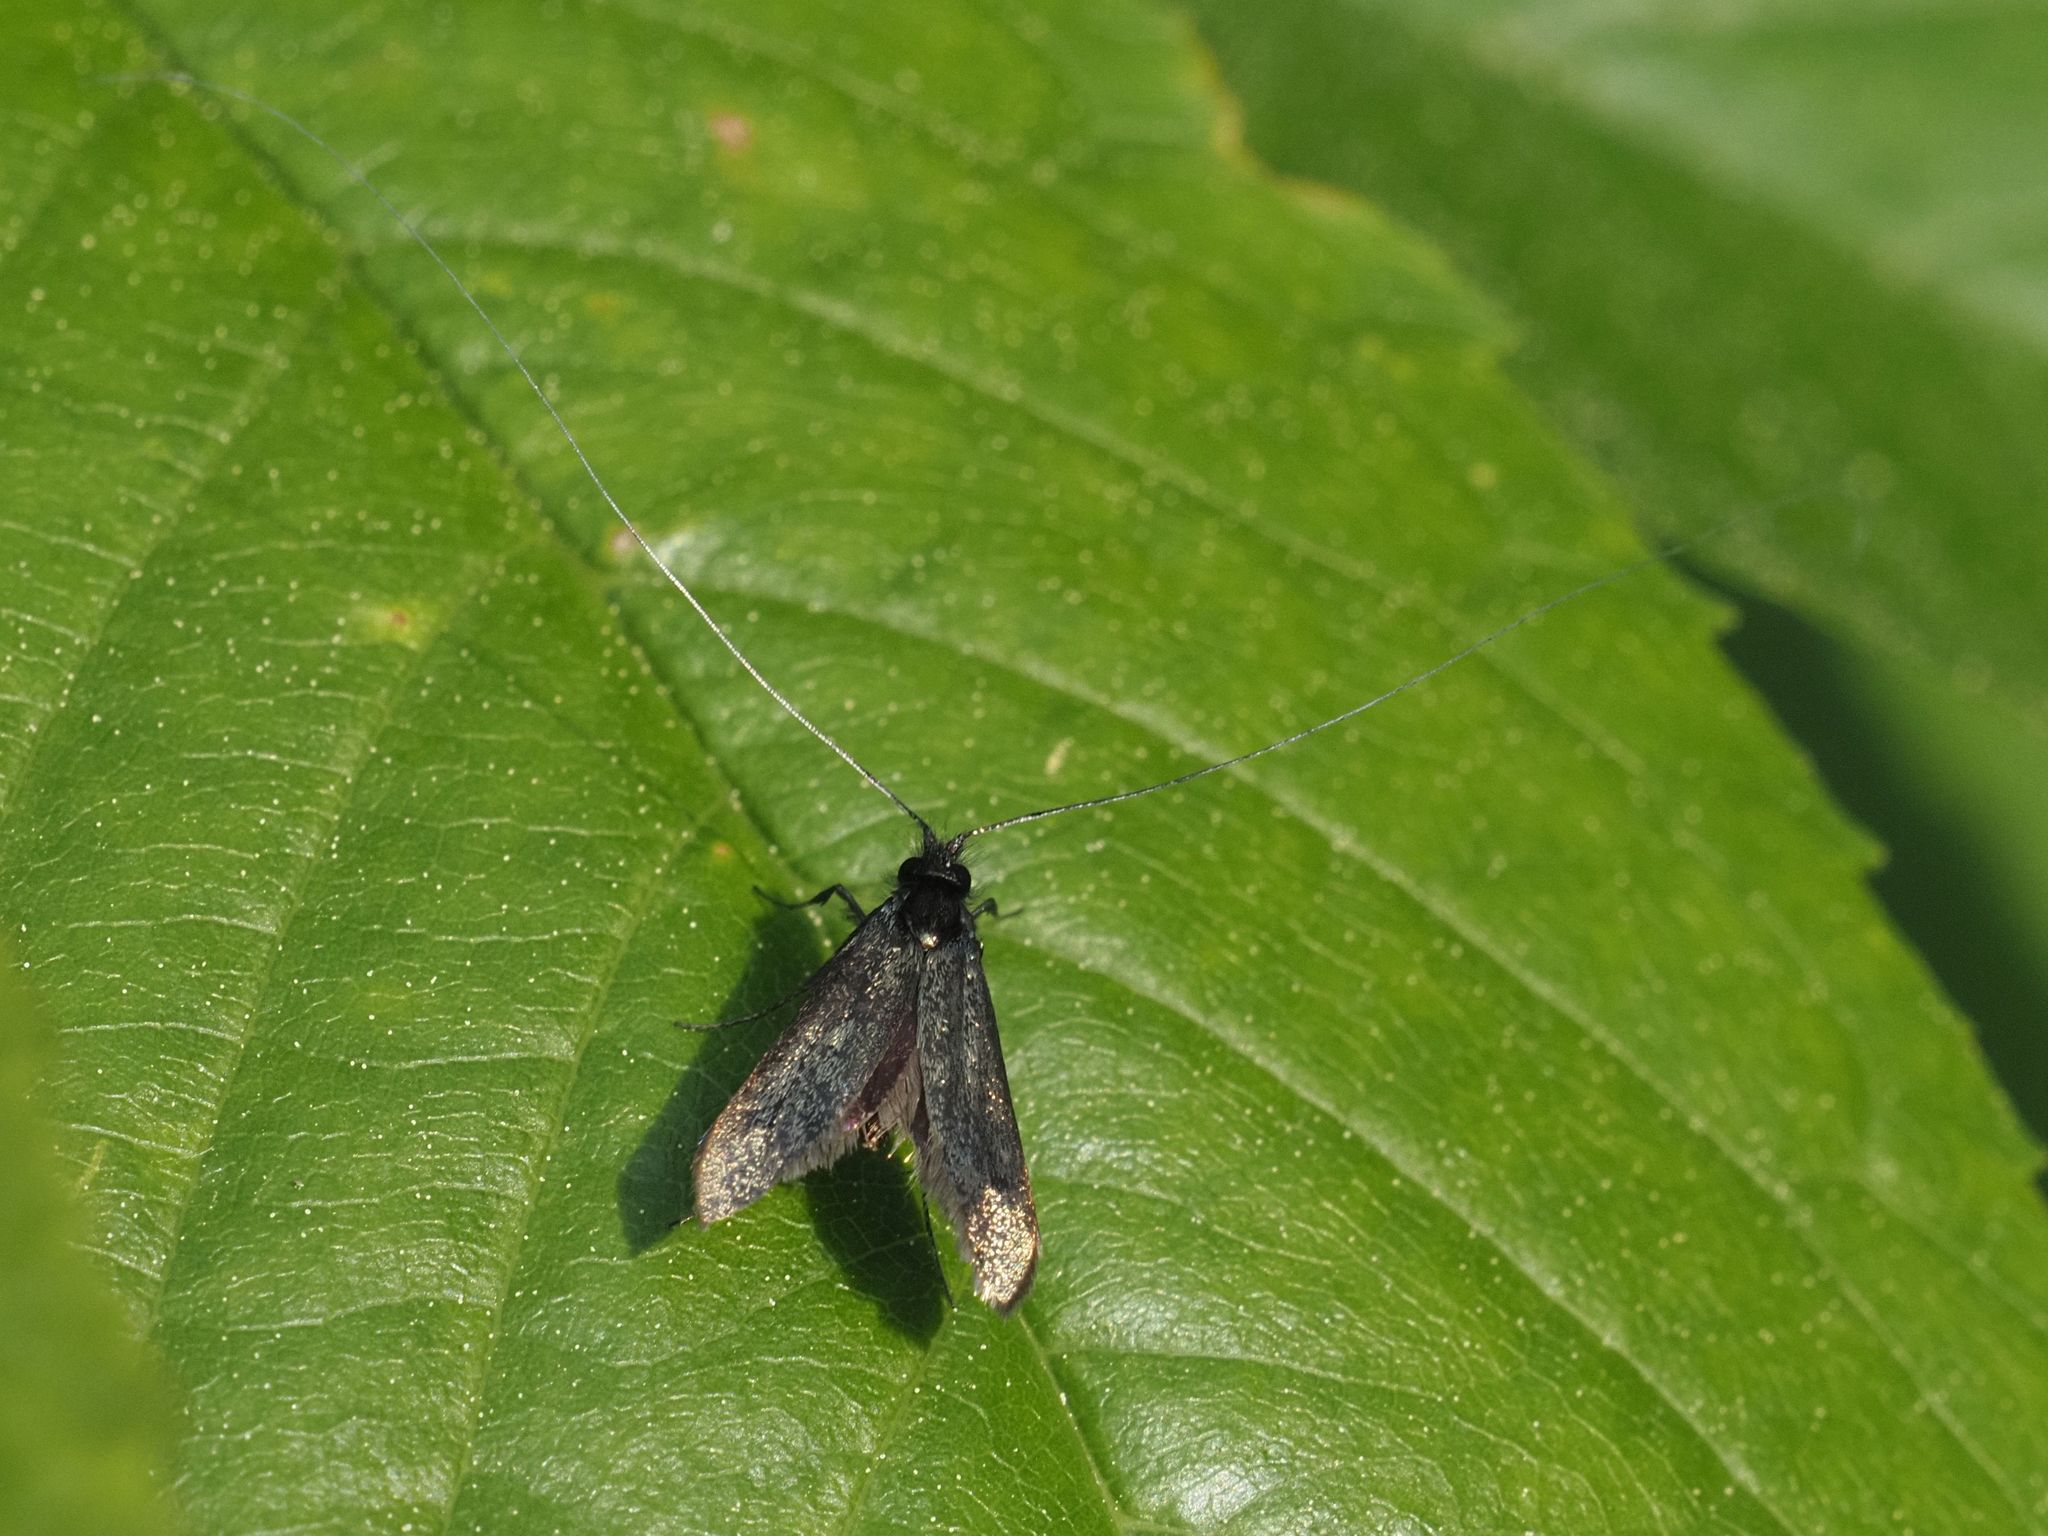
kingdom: Animalia
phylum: Arthropoda
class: Insecta
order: Lepidoptera
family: Adelidae
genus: Adela
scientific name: Adela viridella
